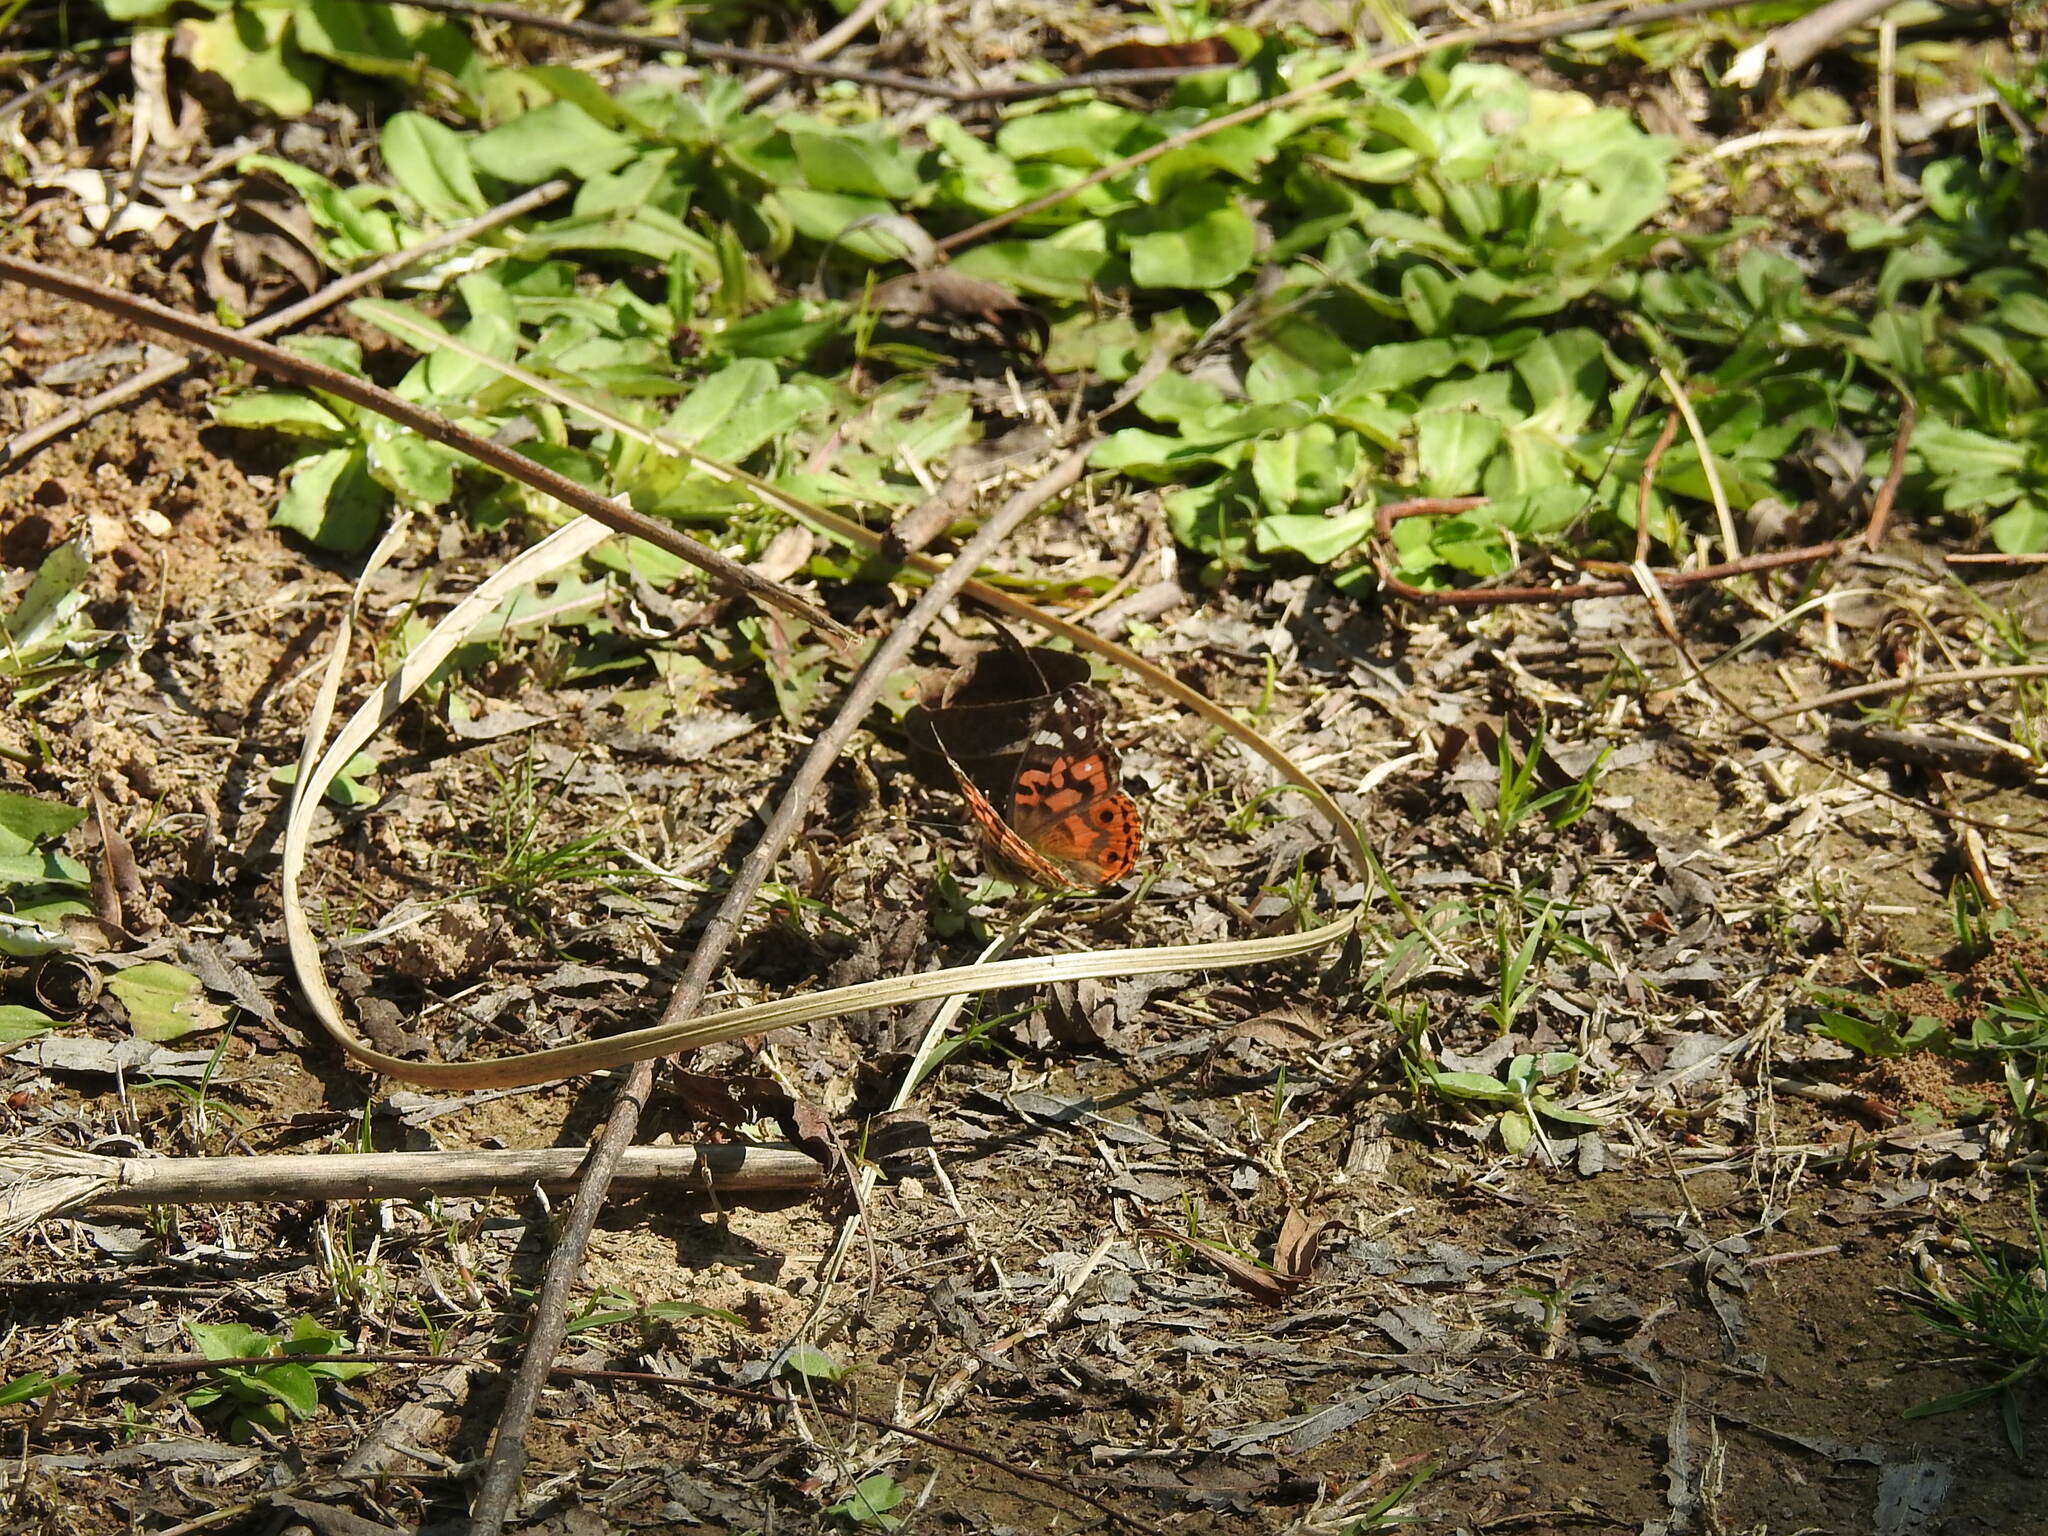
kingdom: Animalia
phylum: Arthropoda
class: Insecta
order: Lepidoptera
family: Nymphalidae
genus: Vanessa
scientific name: Vanessa braziliensis
